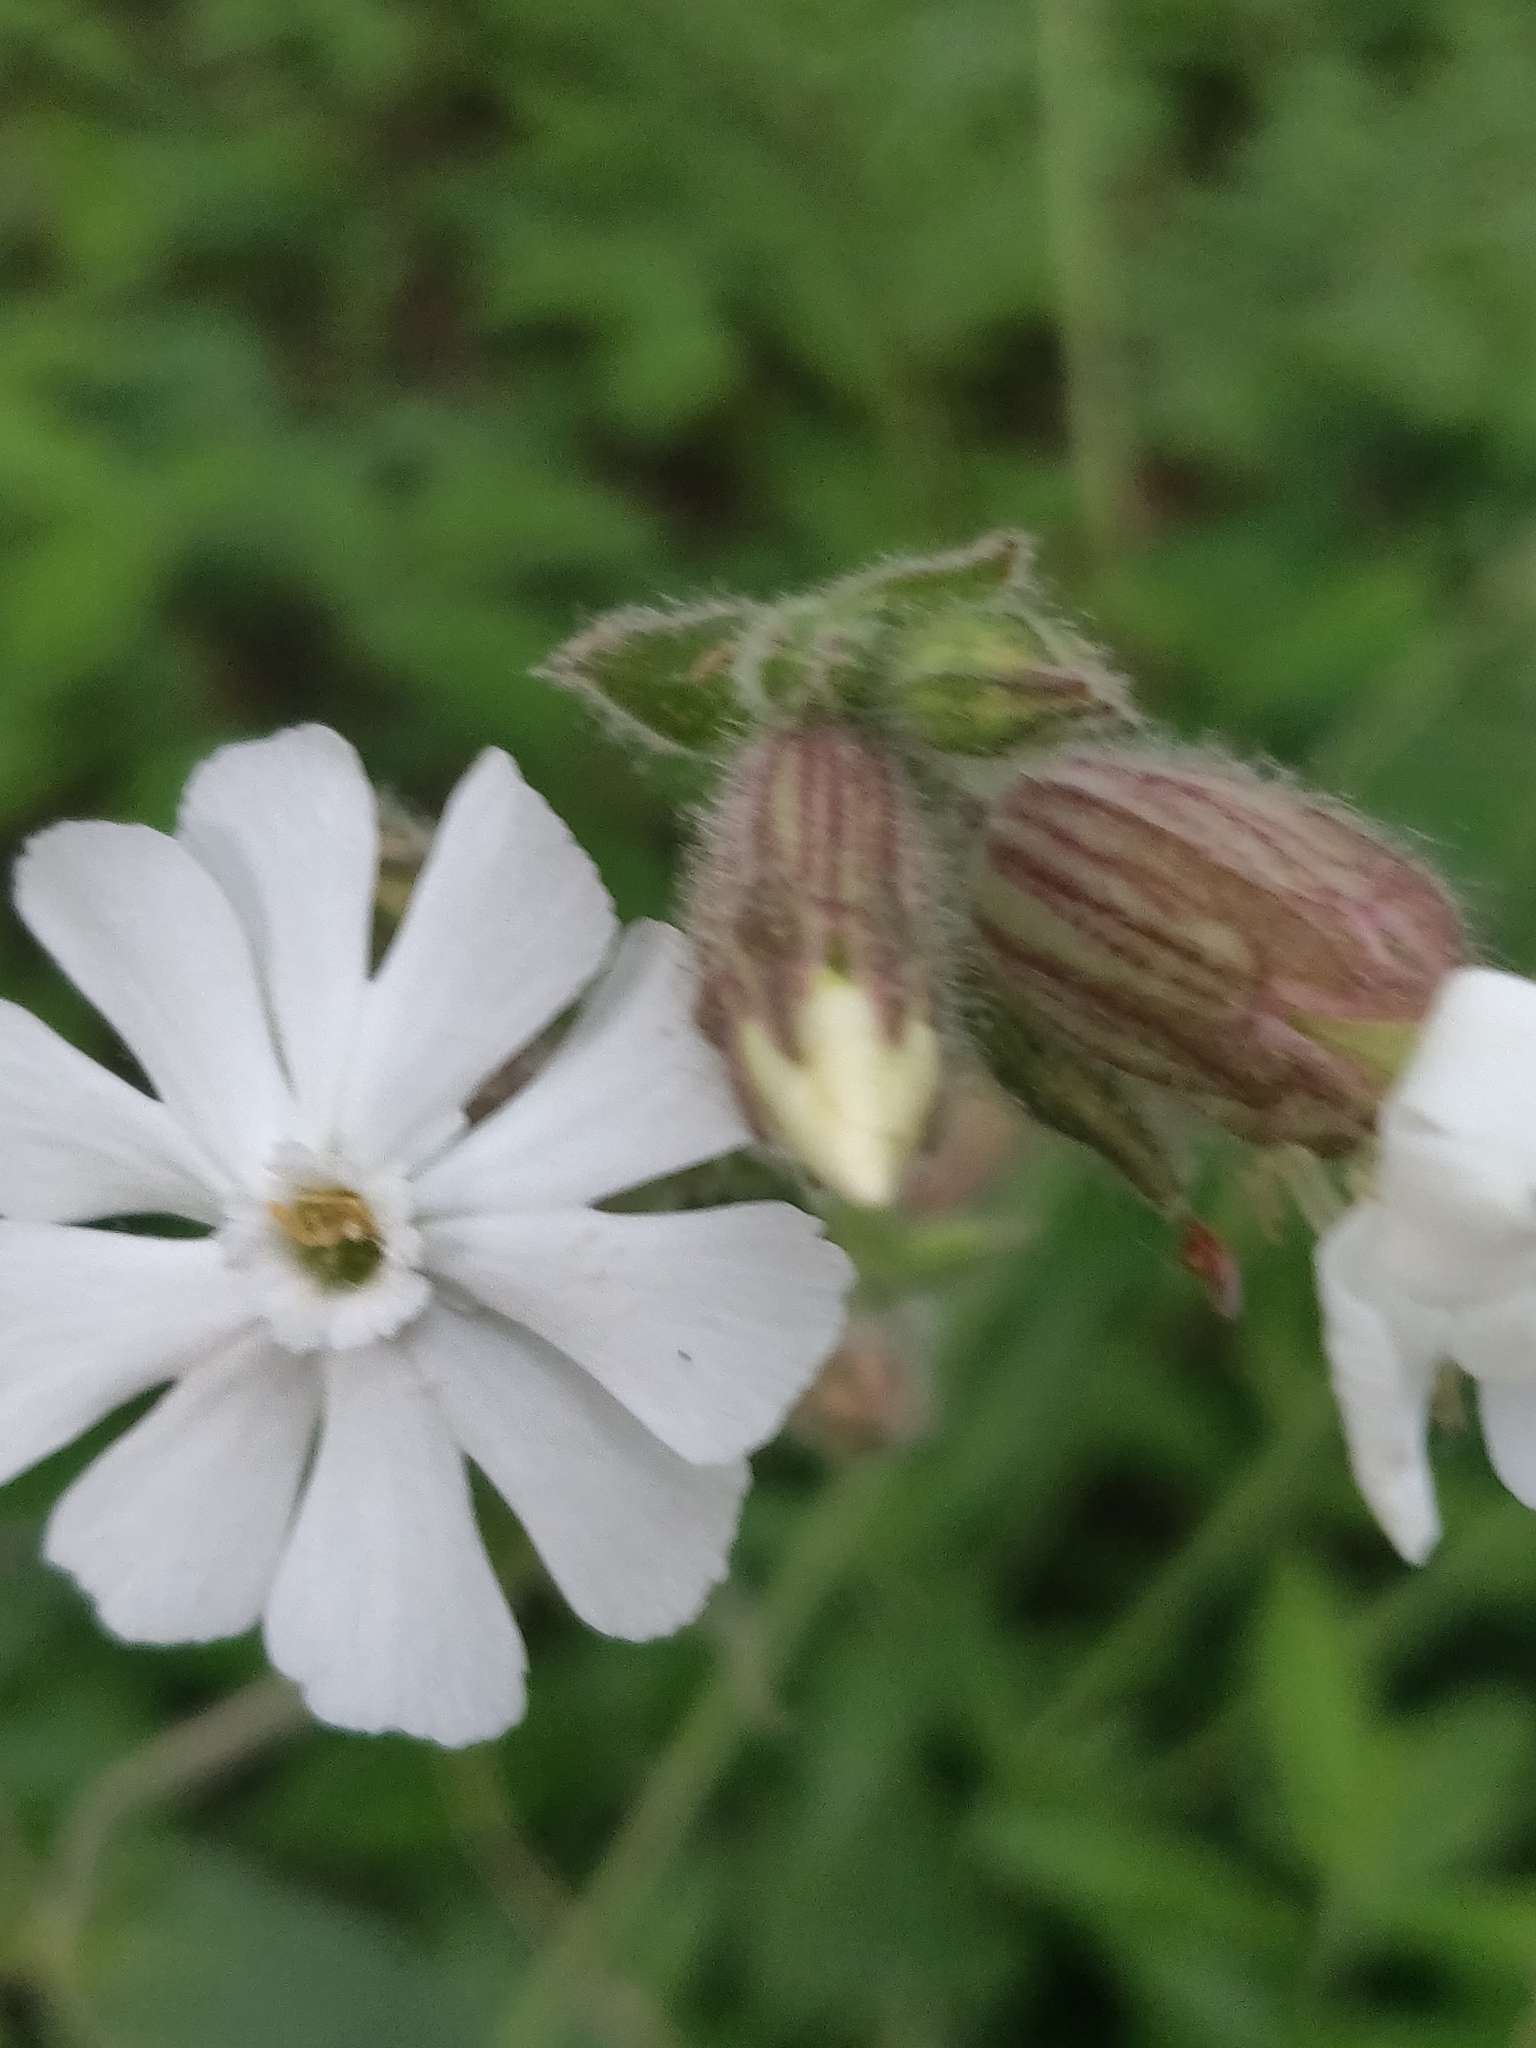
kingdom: Plantae
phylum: Tracheophyta
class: Magnoliopsida
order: Caryophyllales
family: Caryophyllaceae
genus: Silene
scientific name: Silene latifolia
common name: White campion
